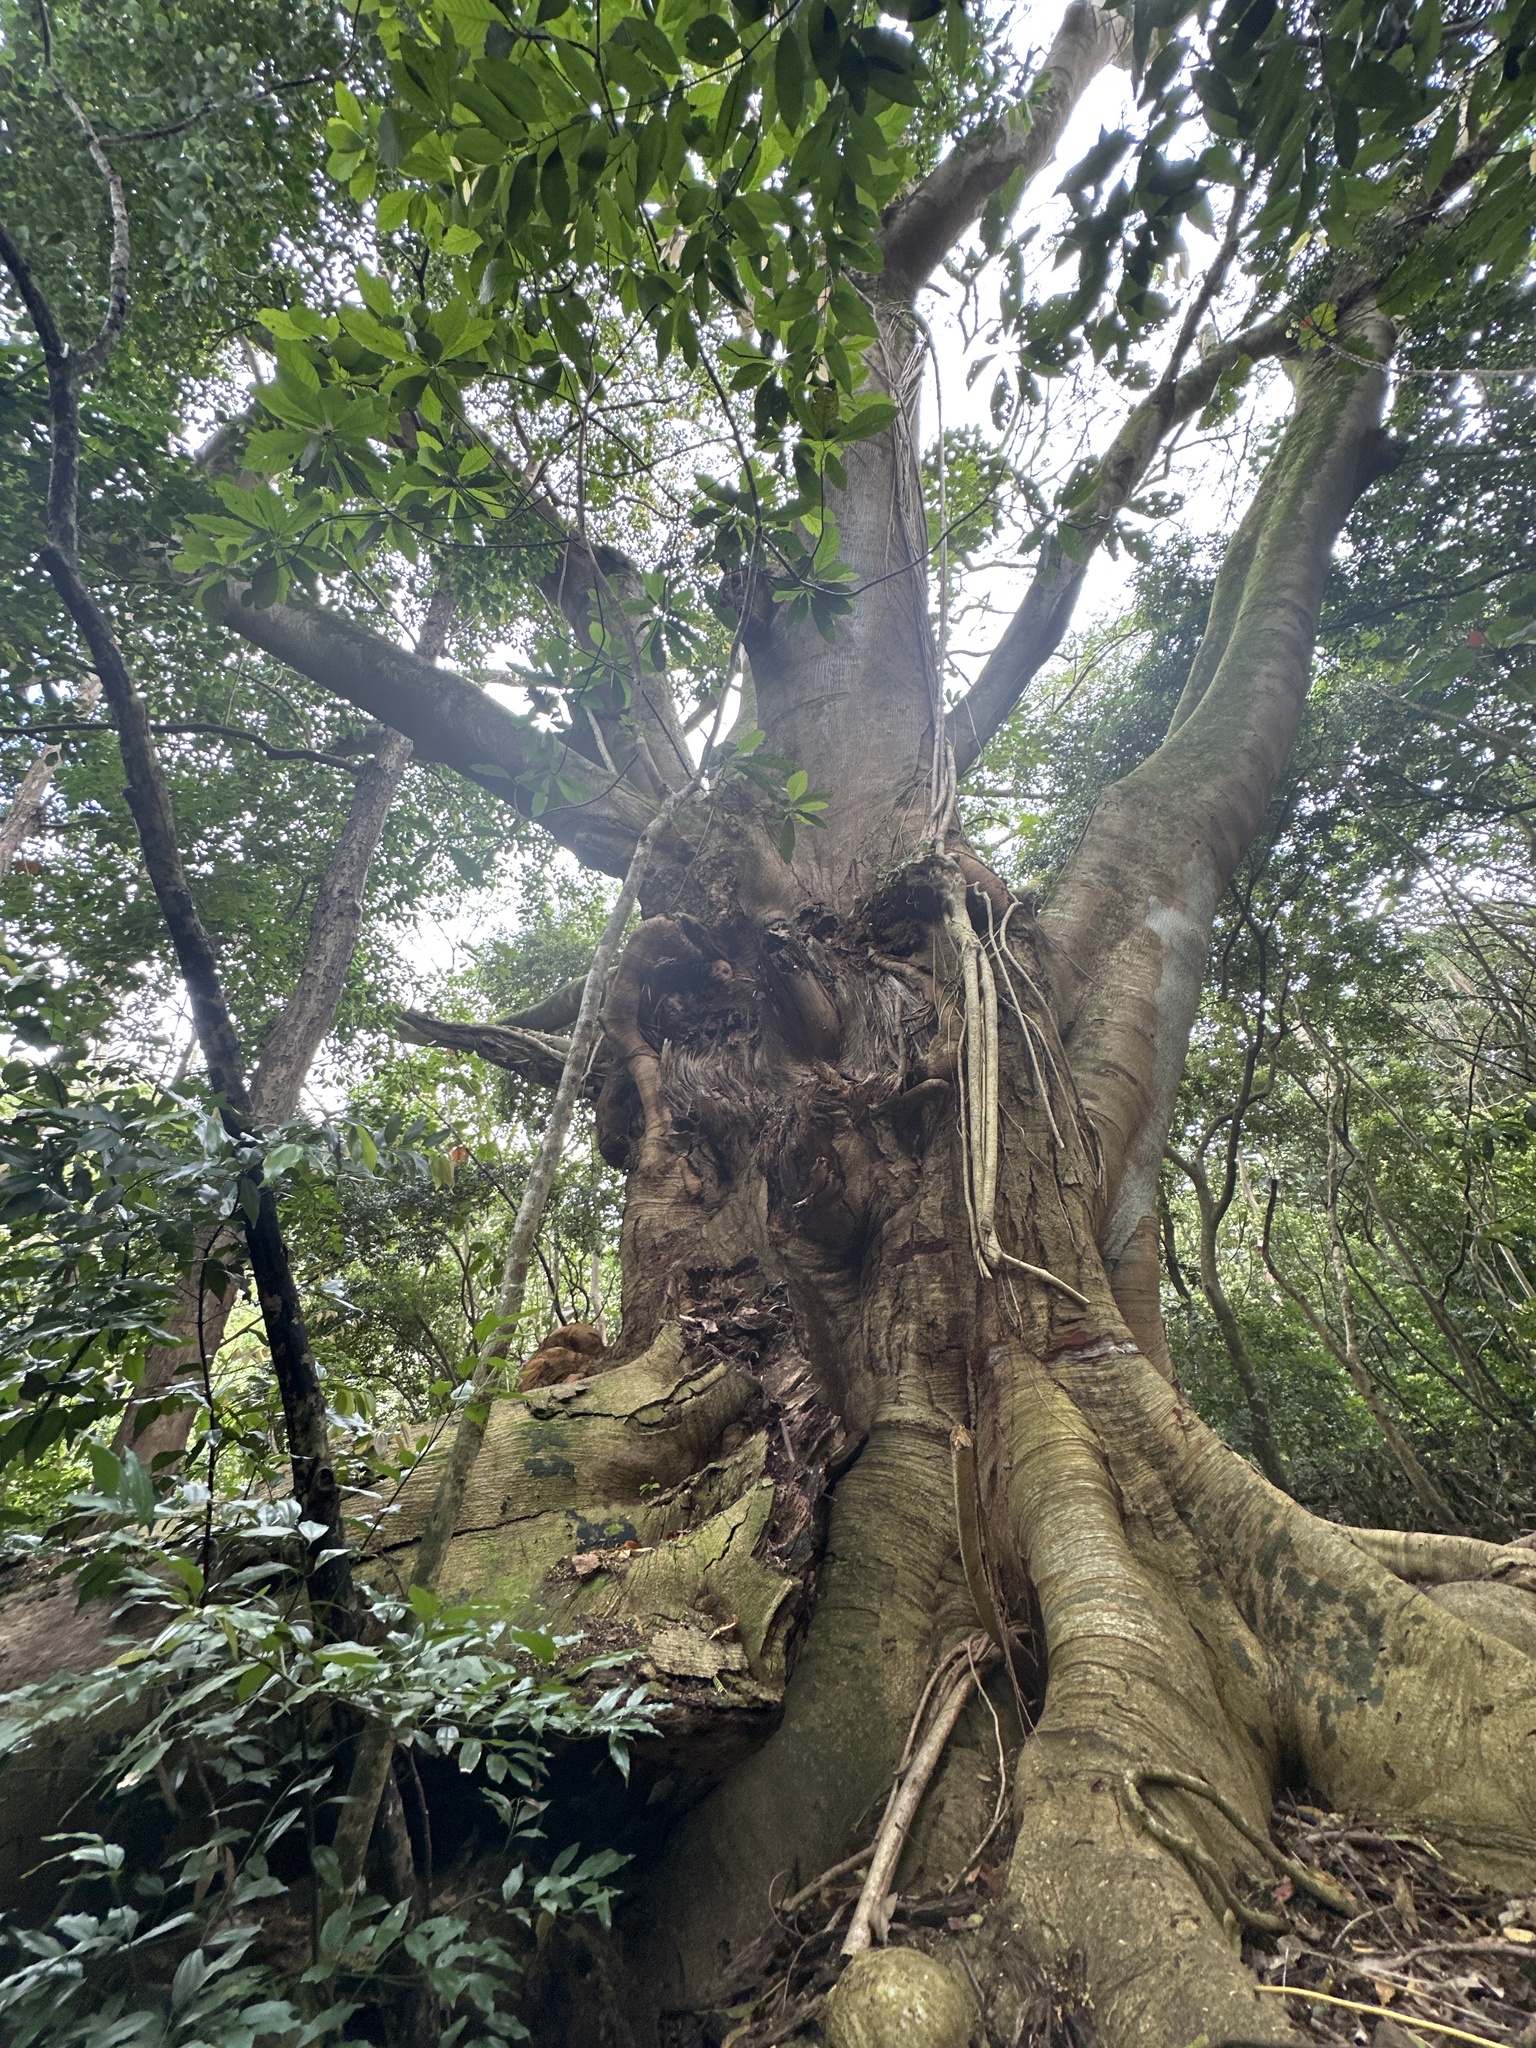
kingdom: Plantae
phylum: Tracheophyta
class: Magnoliopsida
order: Fabales
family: Fabaceae
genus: Falcataria
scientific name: Falcataria falcata
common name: Moluccan albizia
